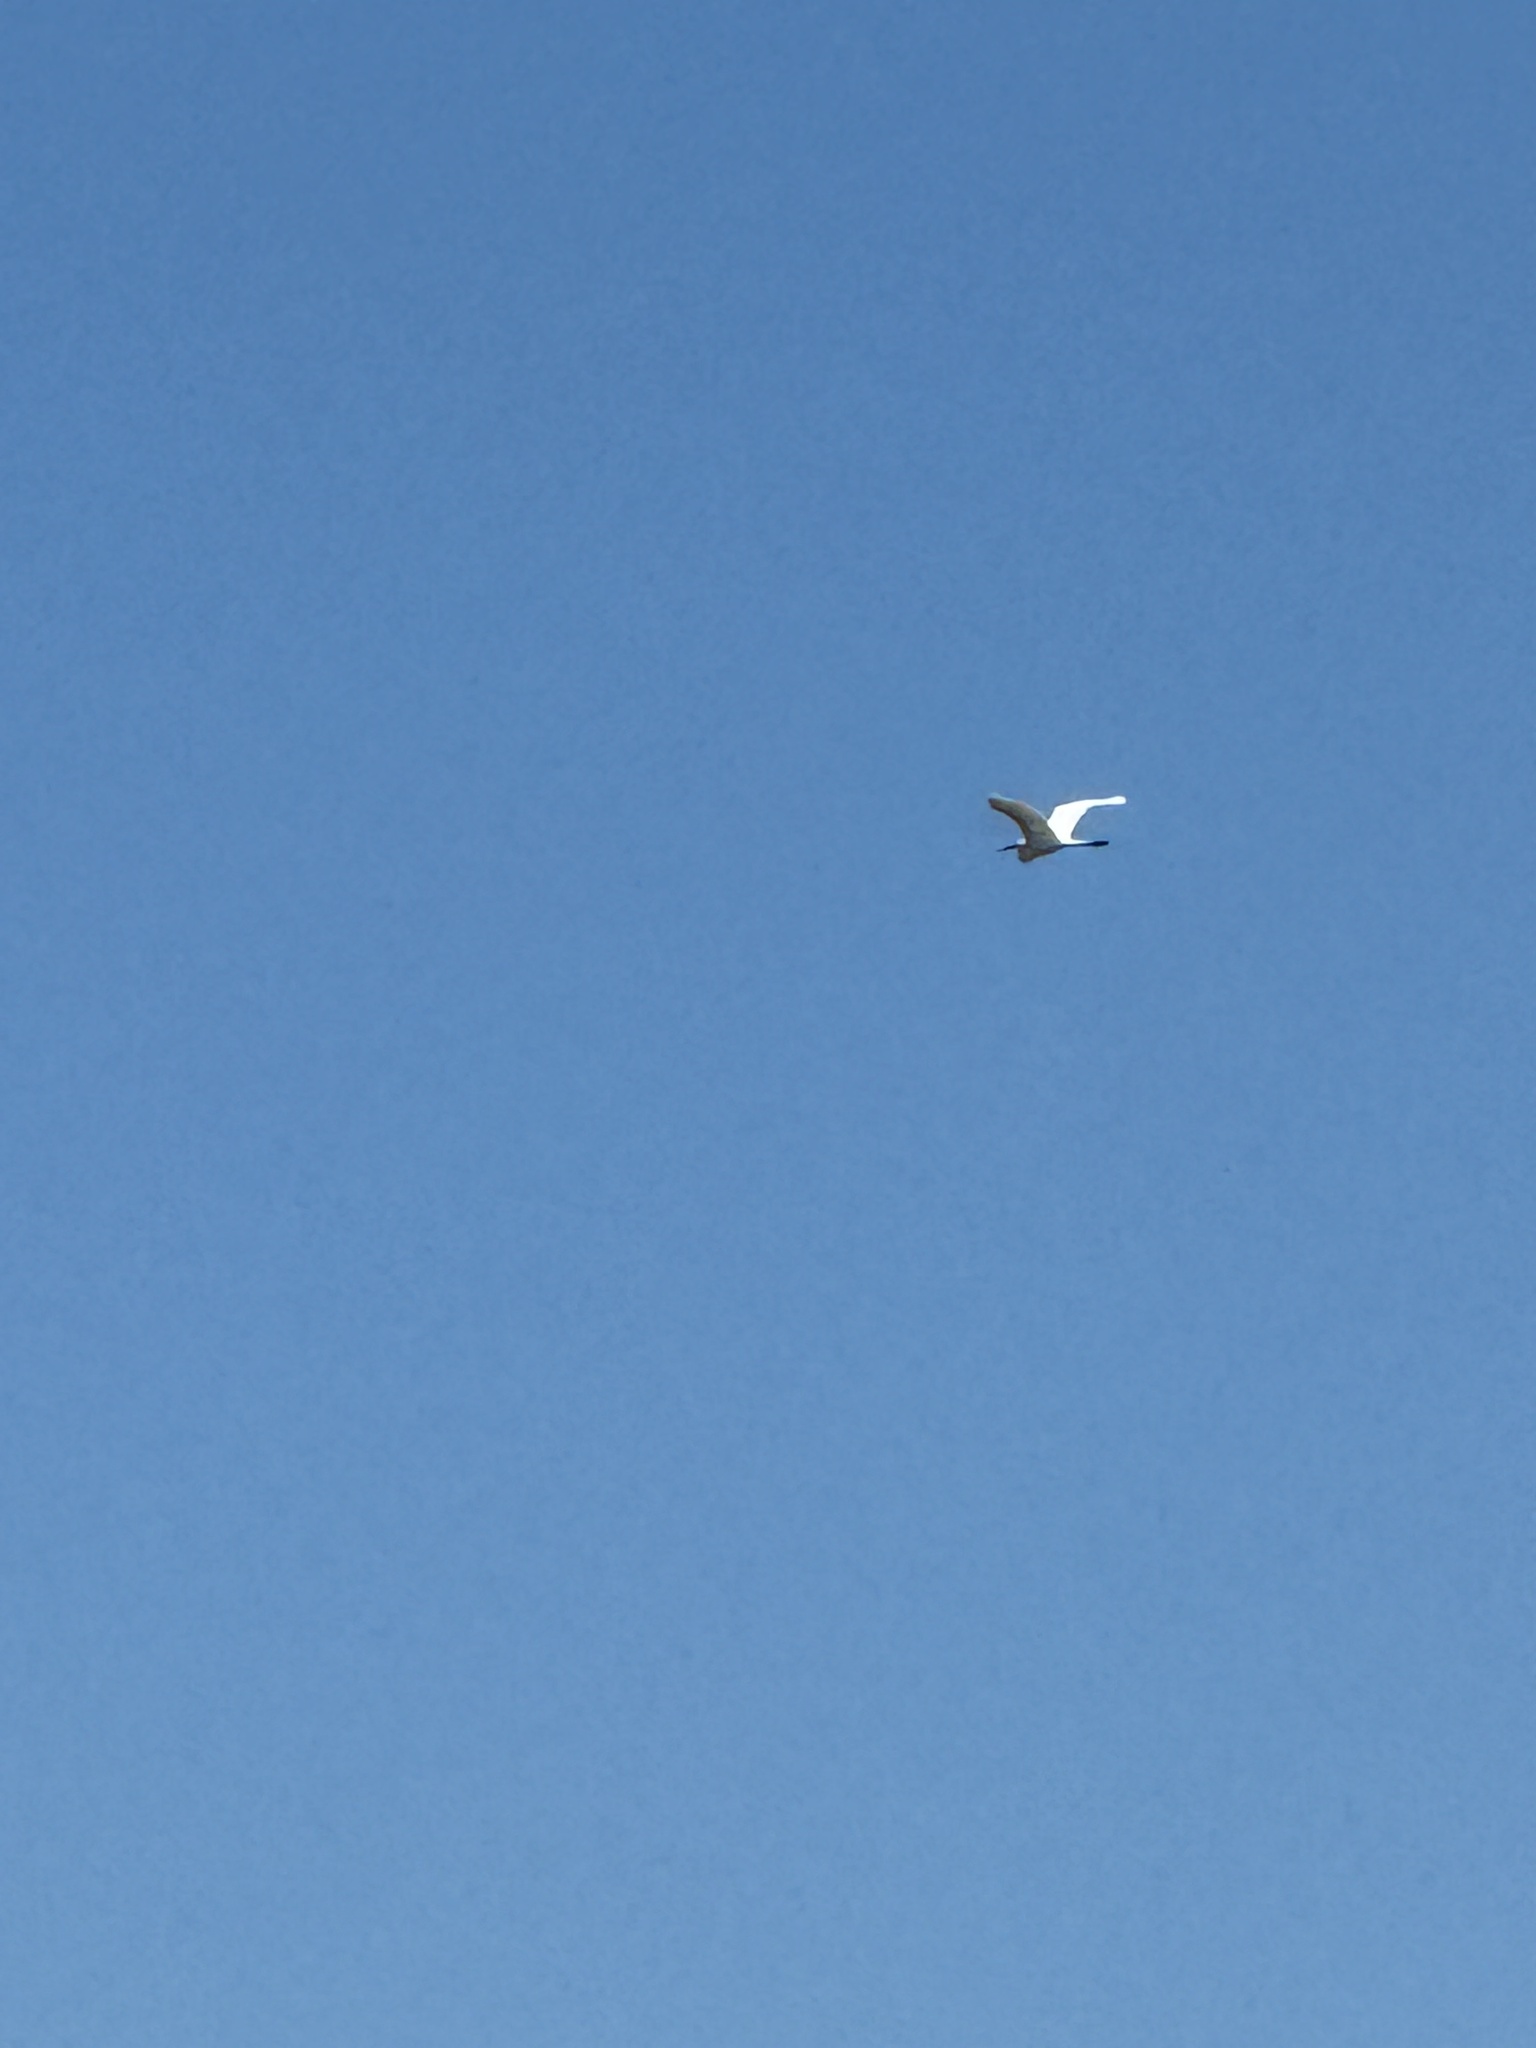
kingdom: Animalia
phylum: Chordata
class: Aves
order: Pelecaniformes
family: Ardeidae
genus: Ardea
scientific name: Ardea alba
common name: Great egret
